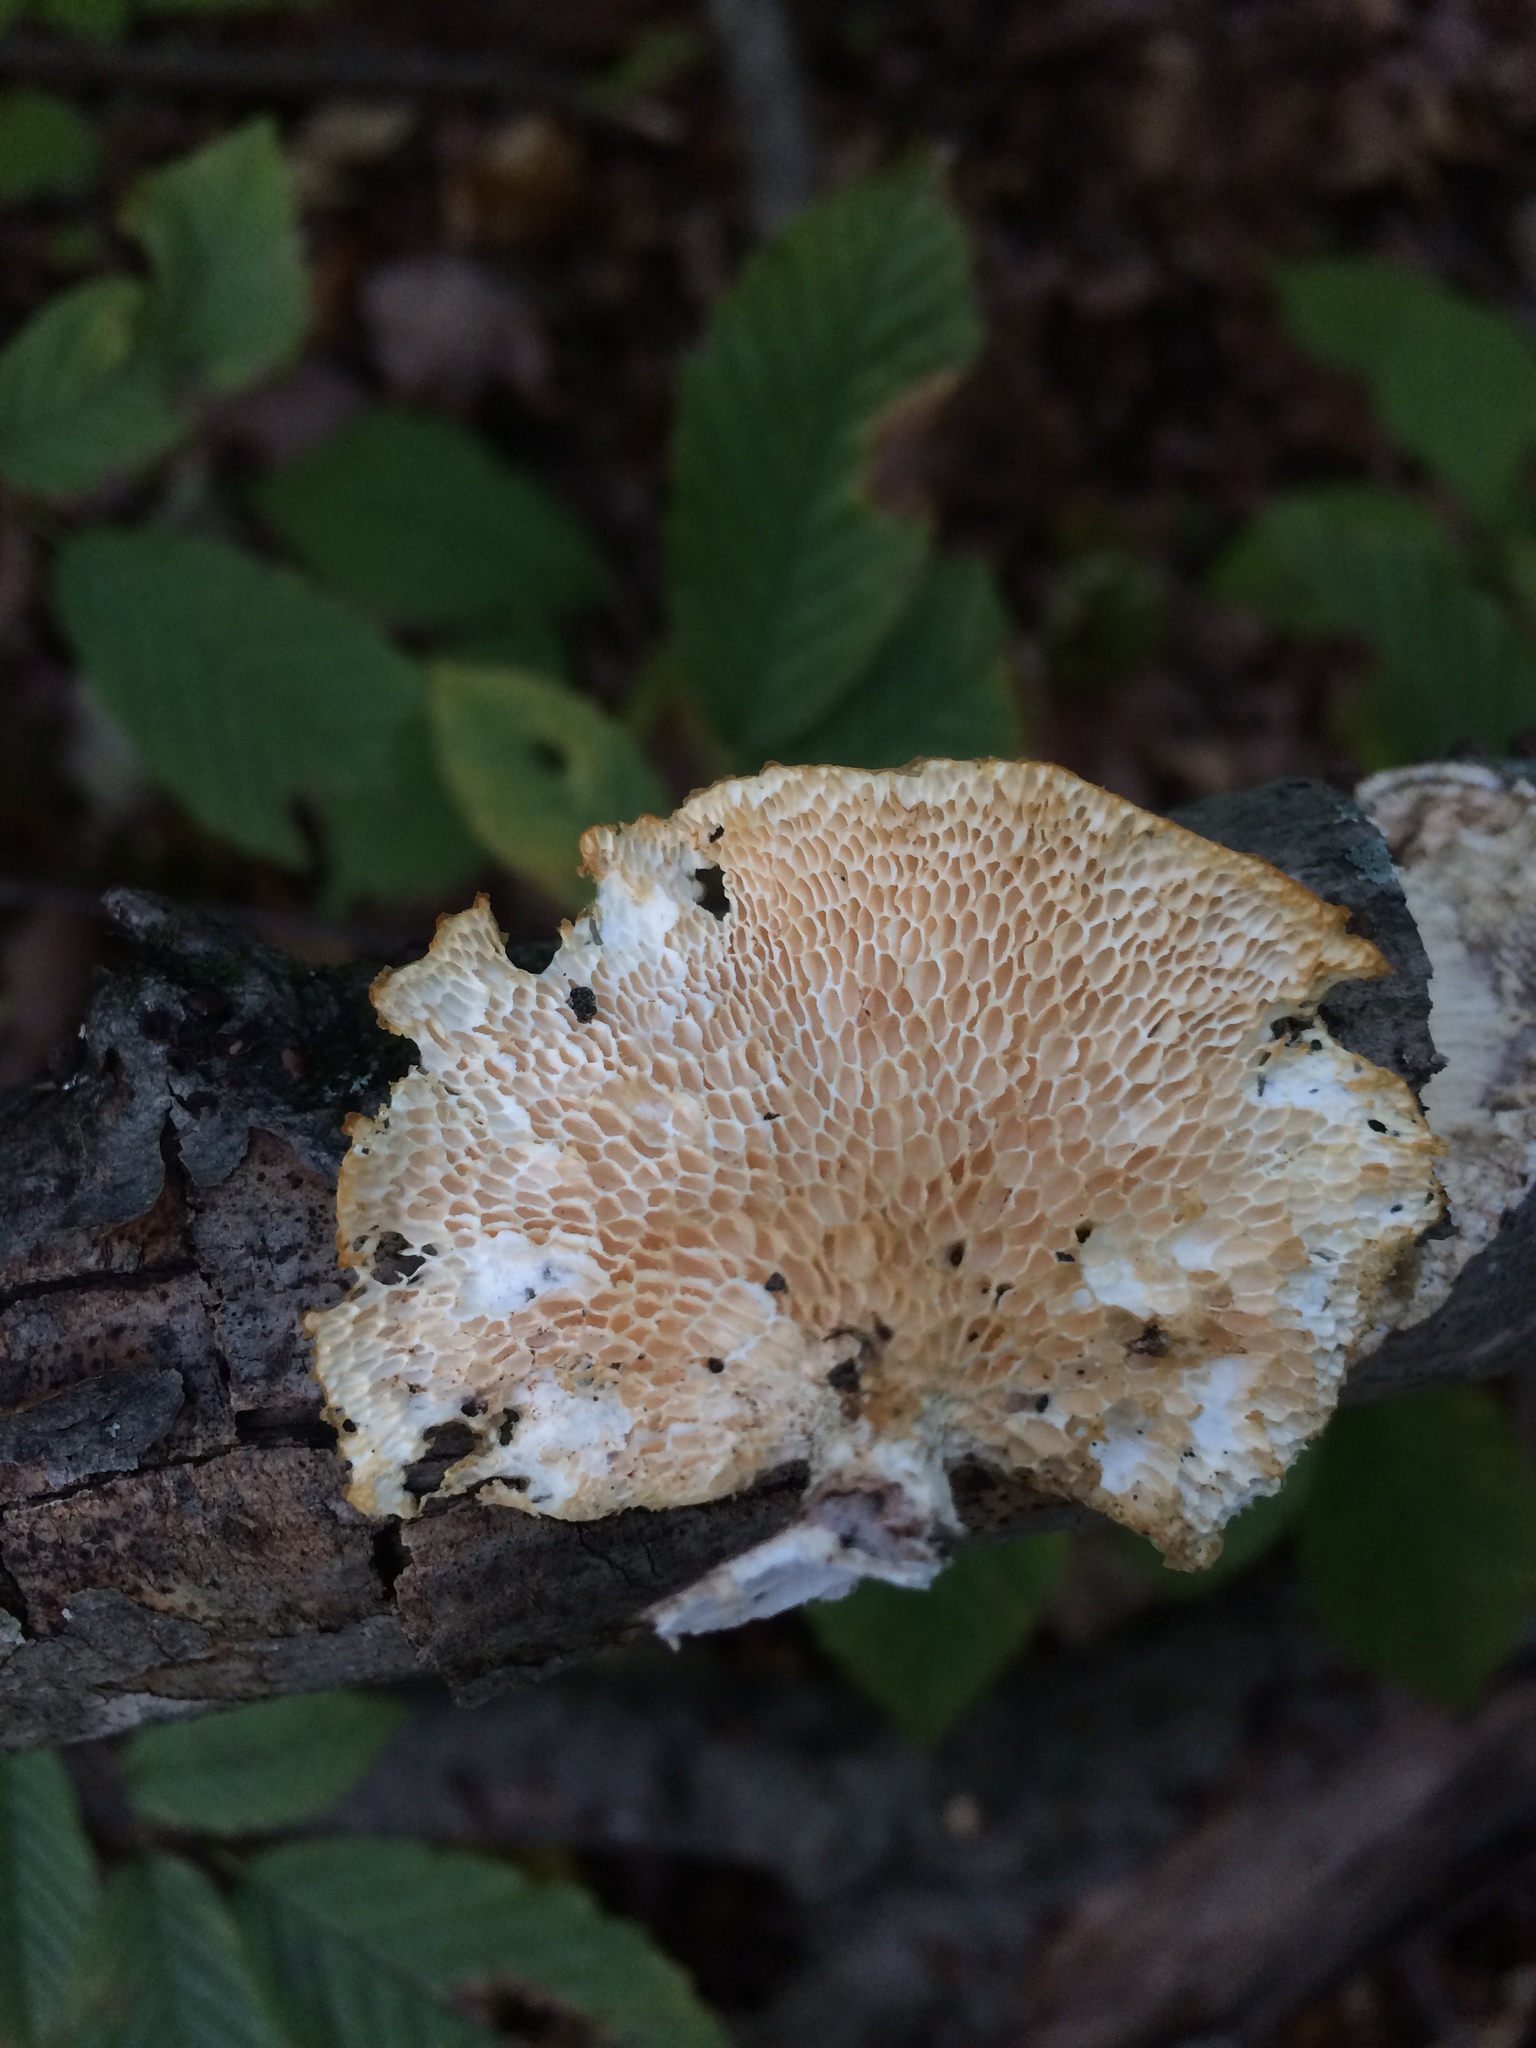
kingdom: Fungi
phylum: Basidiomycota
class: Agaricomycetes
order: Polyporales
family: Polyporaceae
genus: Neofavolus
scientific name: Neofavolus alveolaris
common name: Hexagonal-pored polypore
